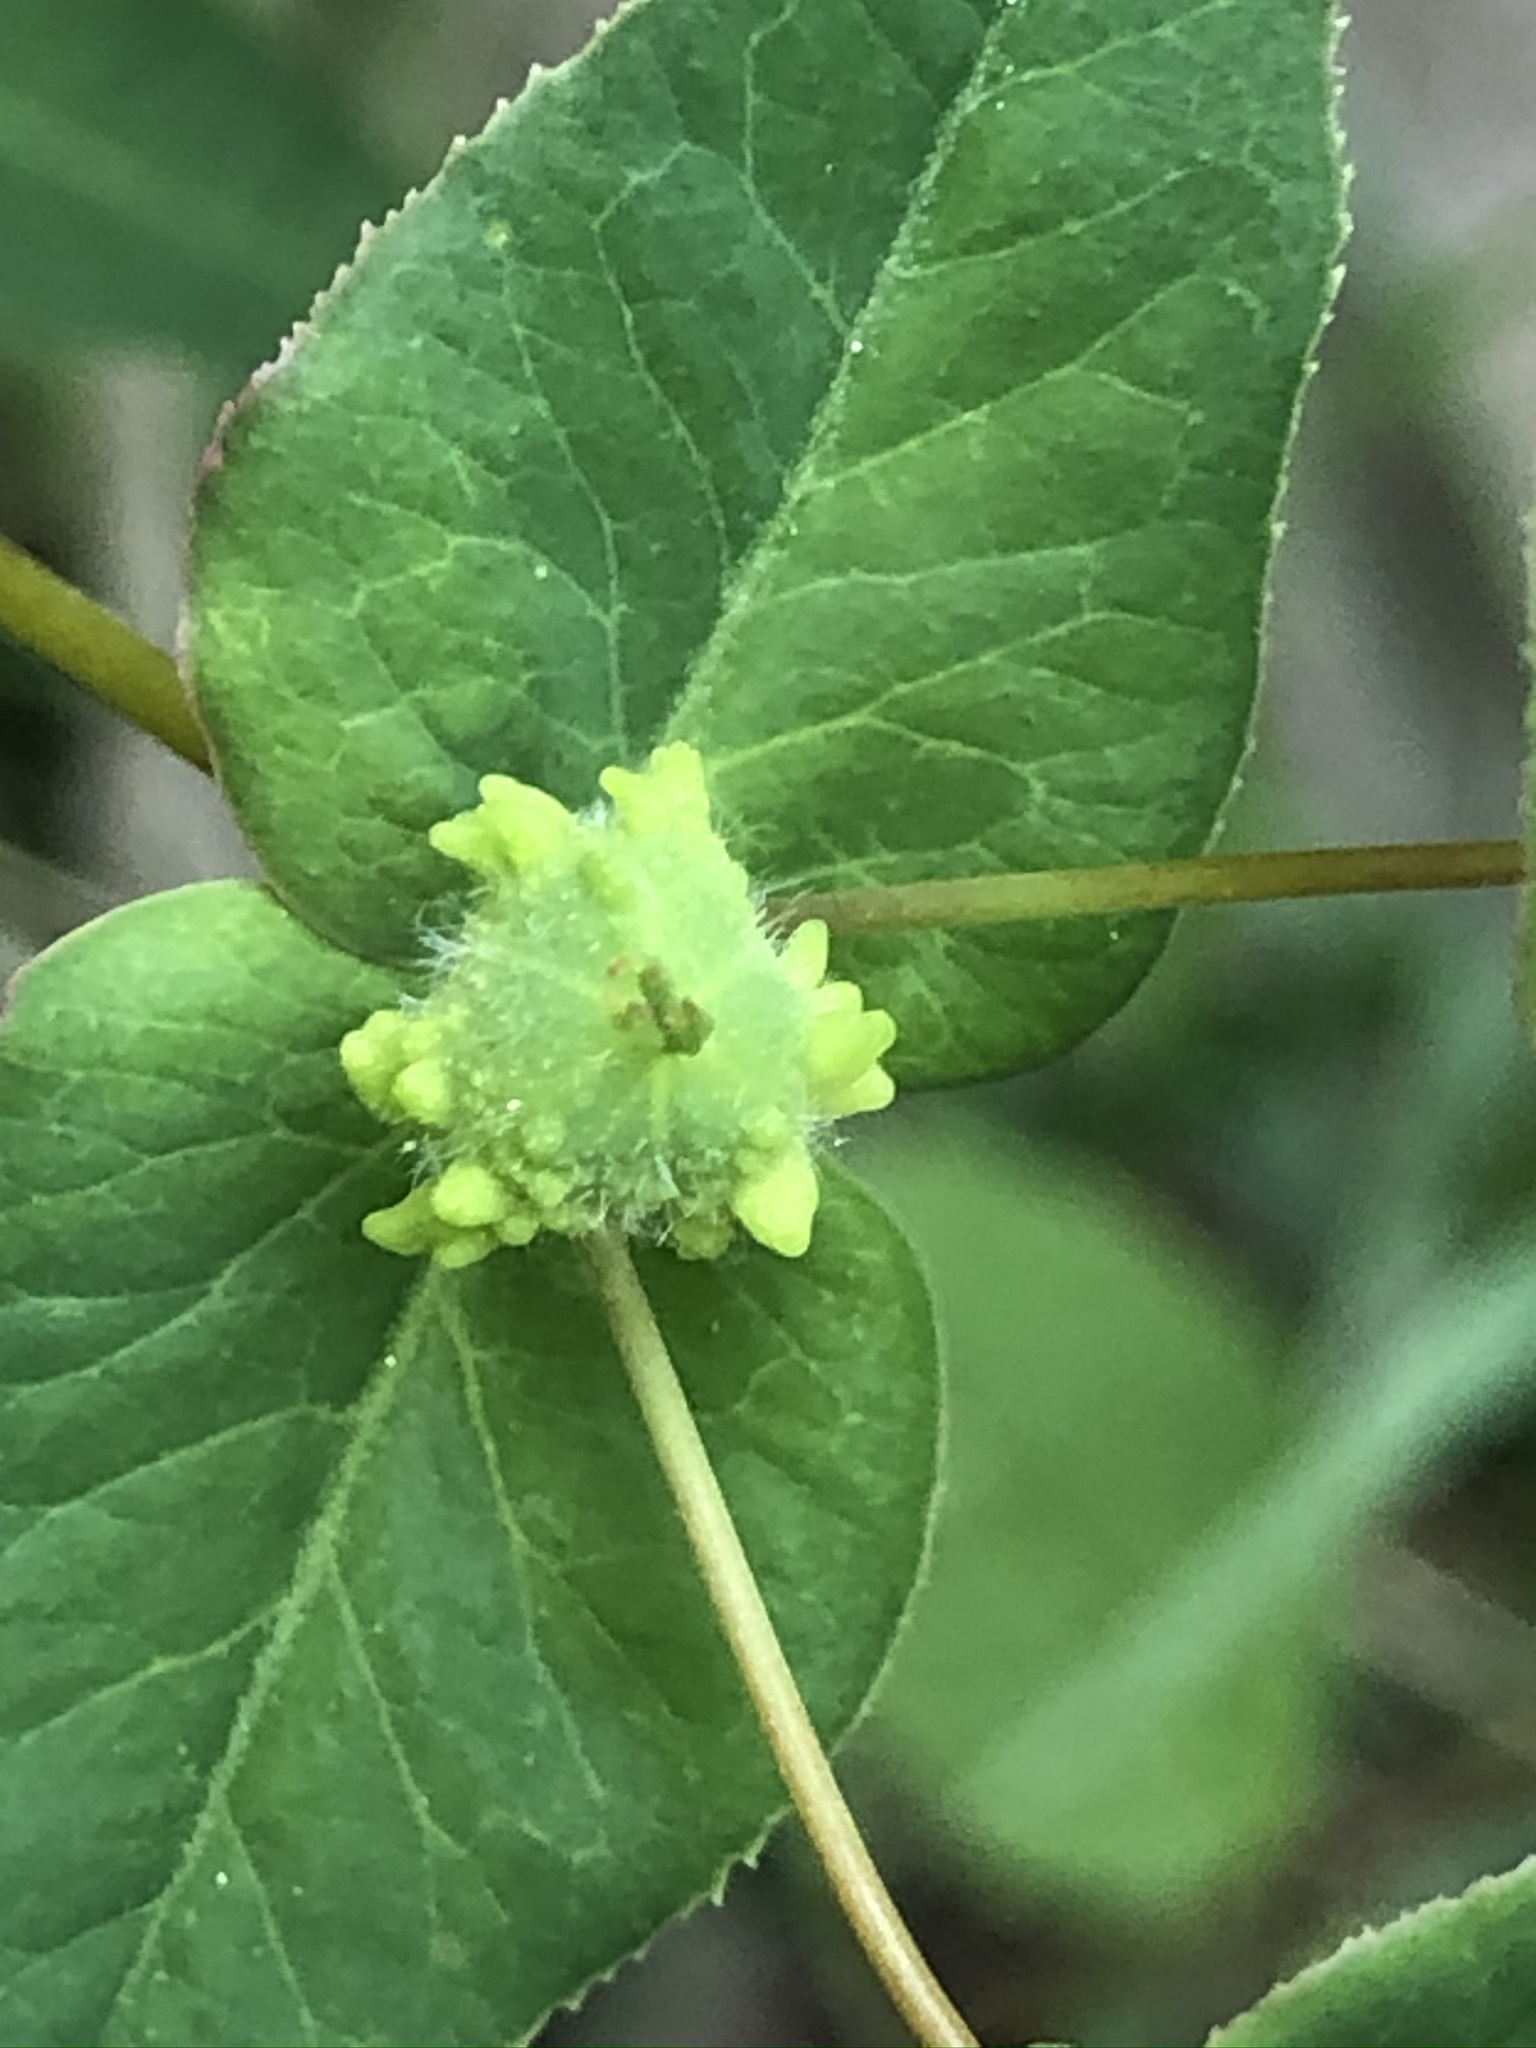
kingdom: Plantae
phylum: Tracheophyta
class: Magnoliopsida
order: Malpighiales
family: Euphorbiaceae
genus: Euphorbia
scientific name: Euphorbia dulcis
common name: Sweet spurge
